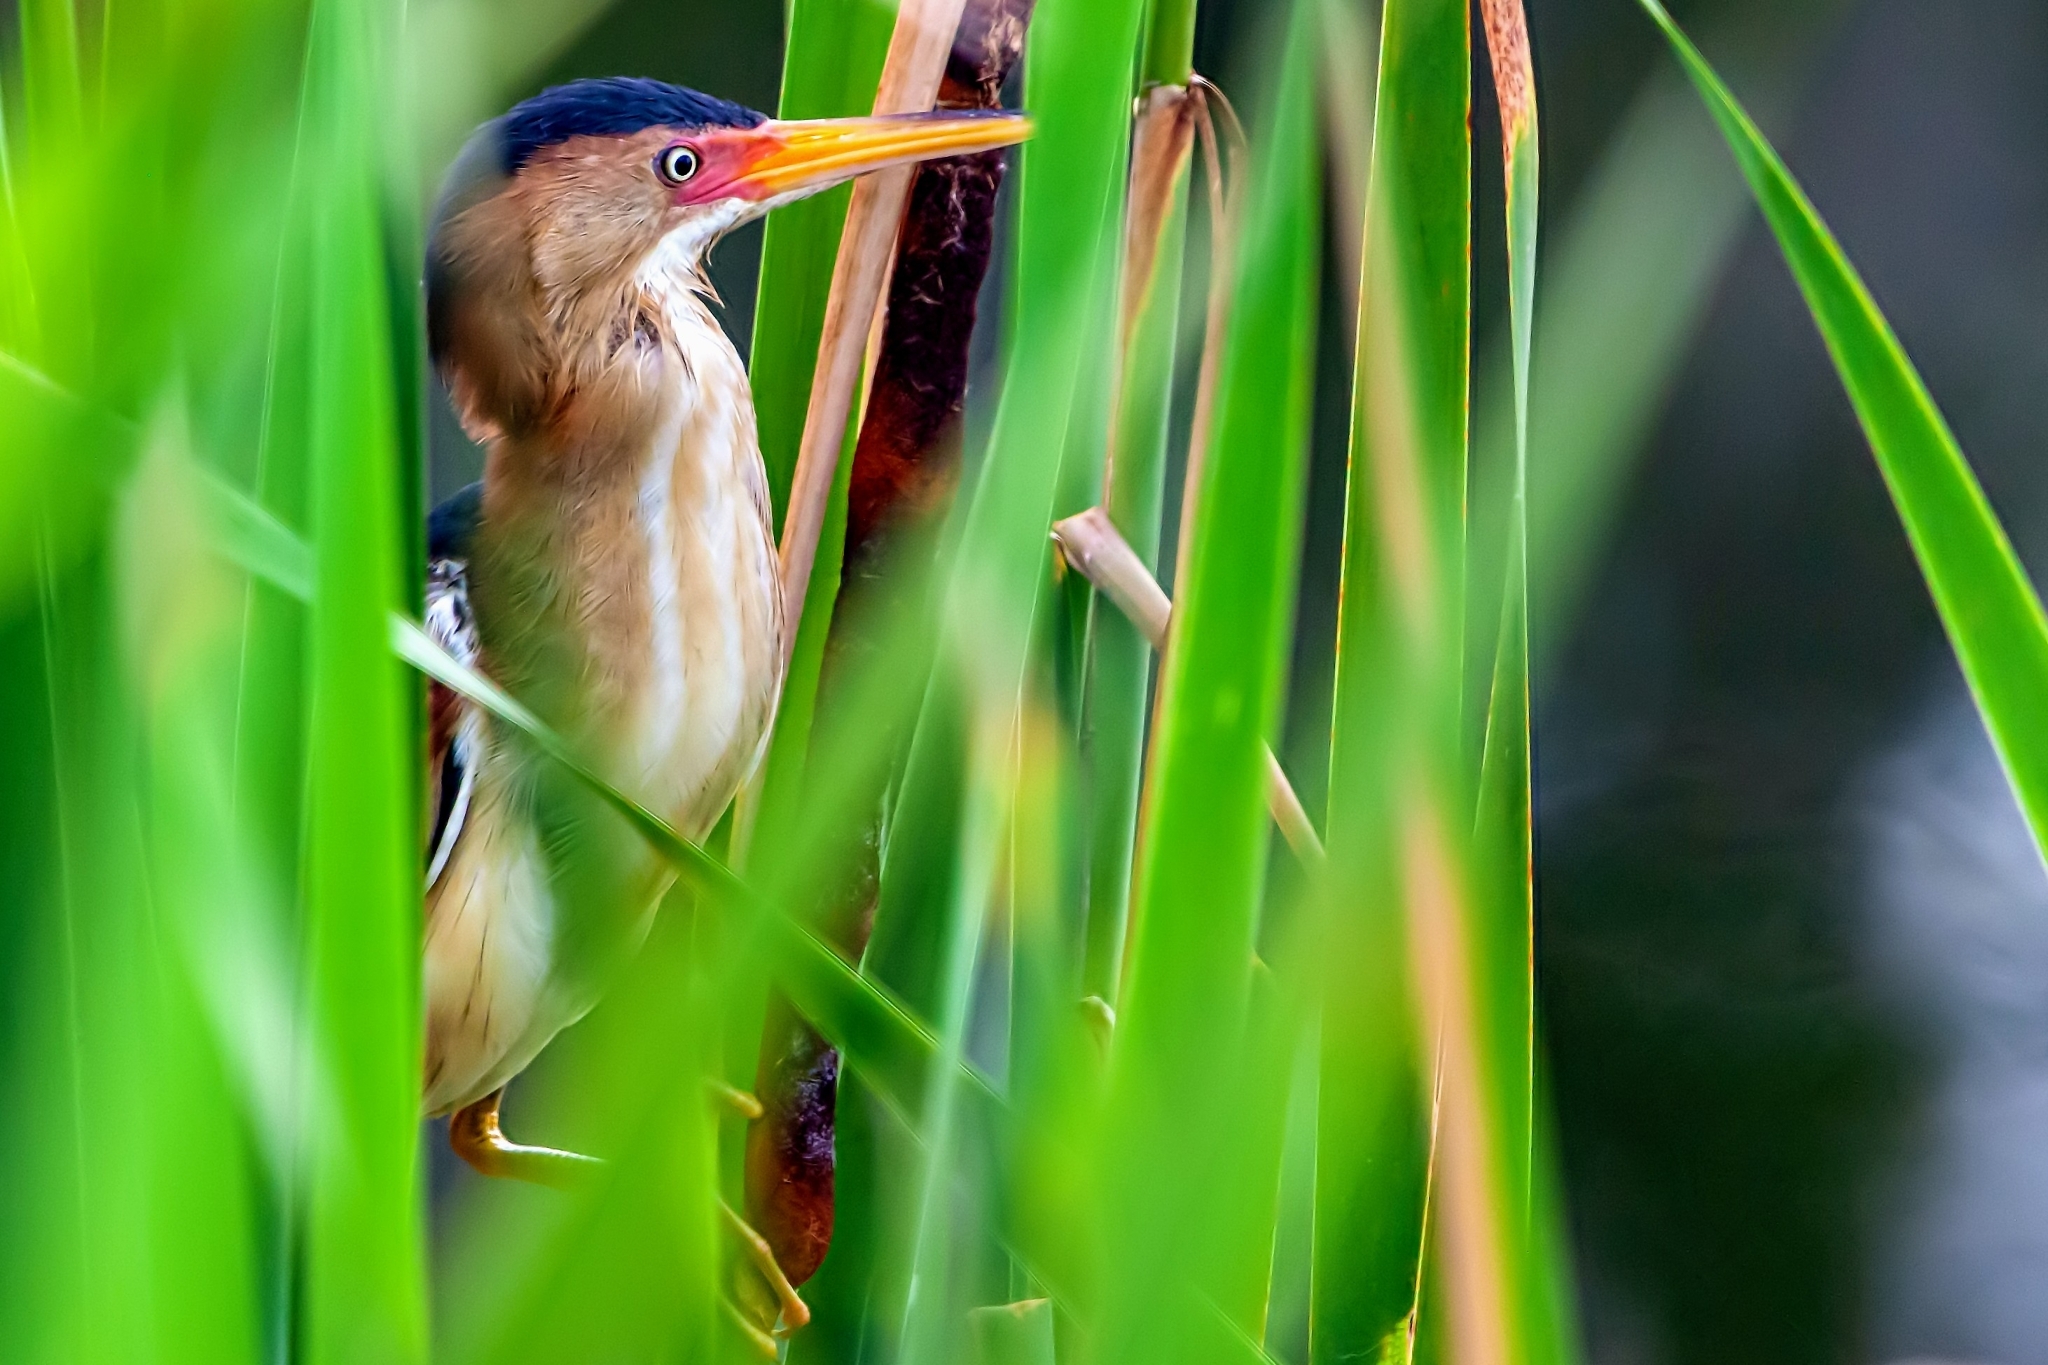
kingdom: Animalia
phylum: Chordata
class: Aves
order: Pelecaniformes
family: Ardeidae
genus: Ixobrychus
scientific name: Ixobrychus exilis
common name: Least bittern
